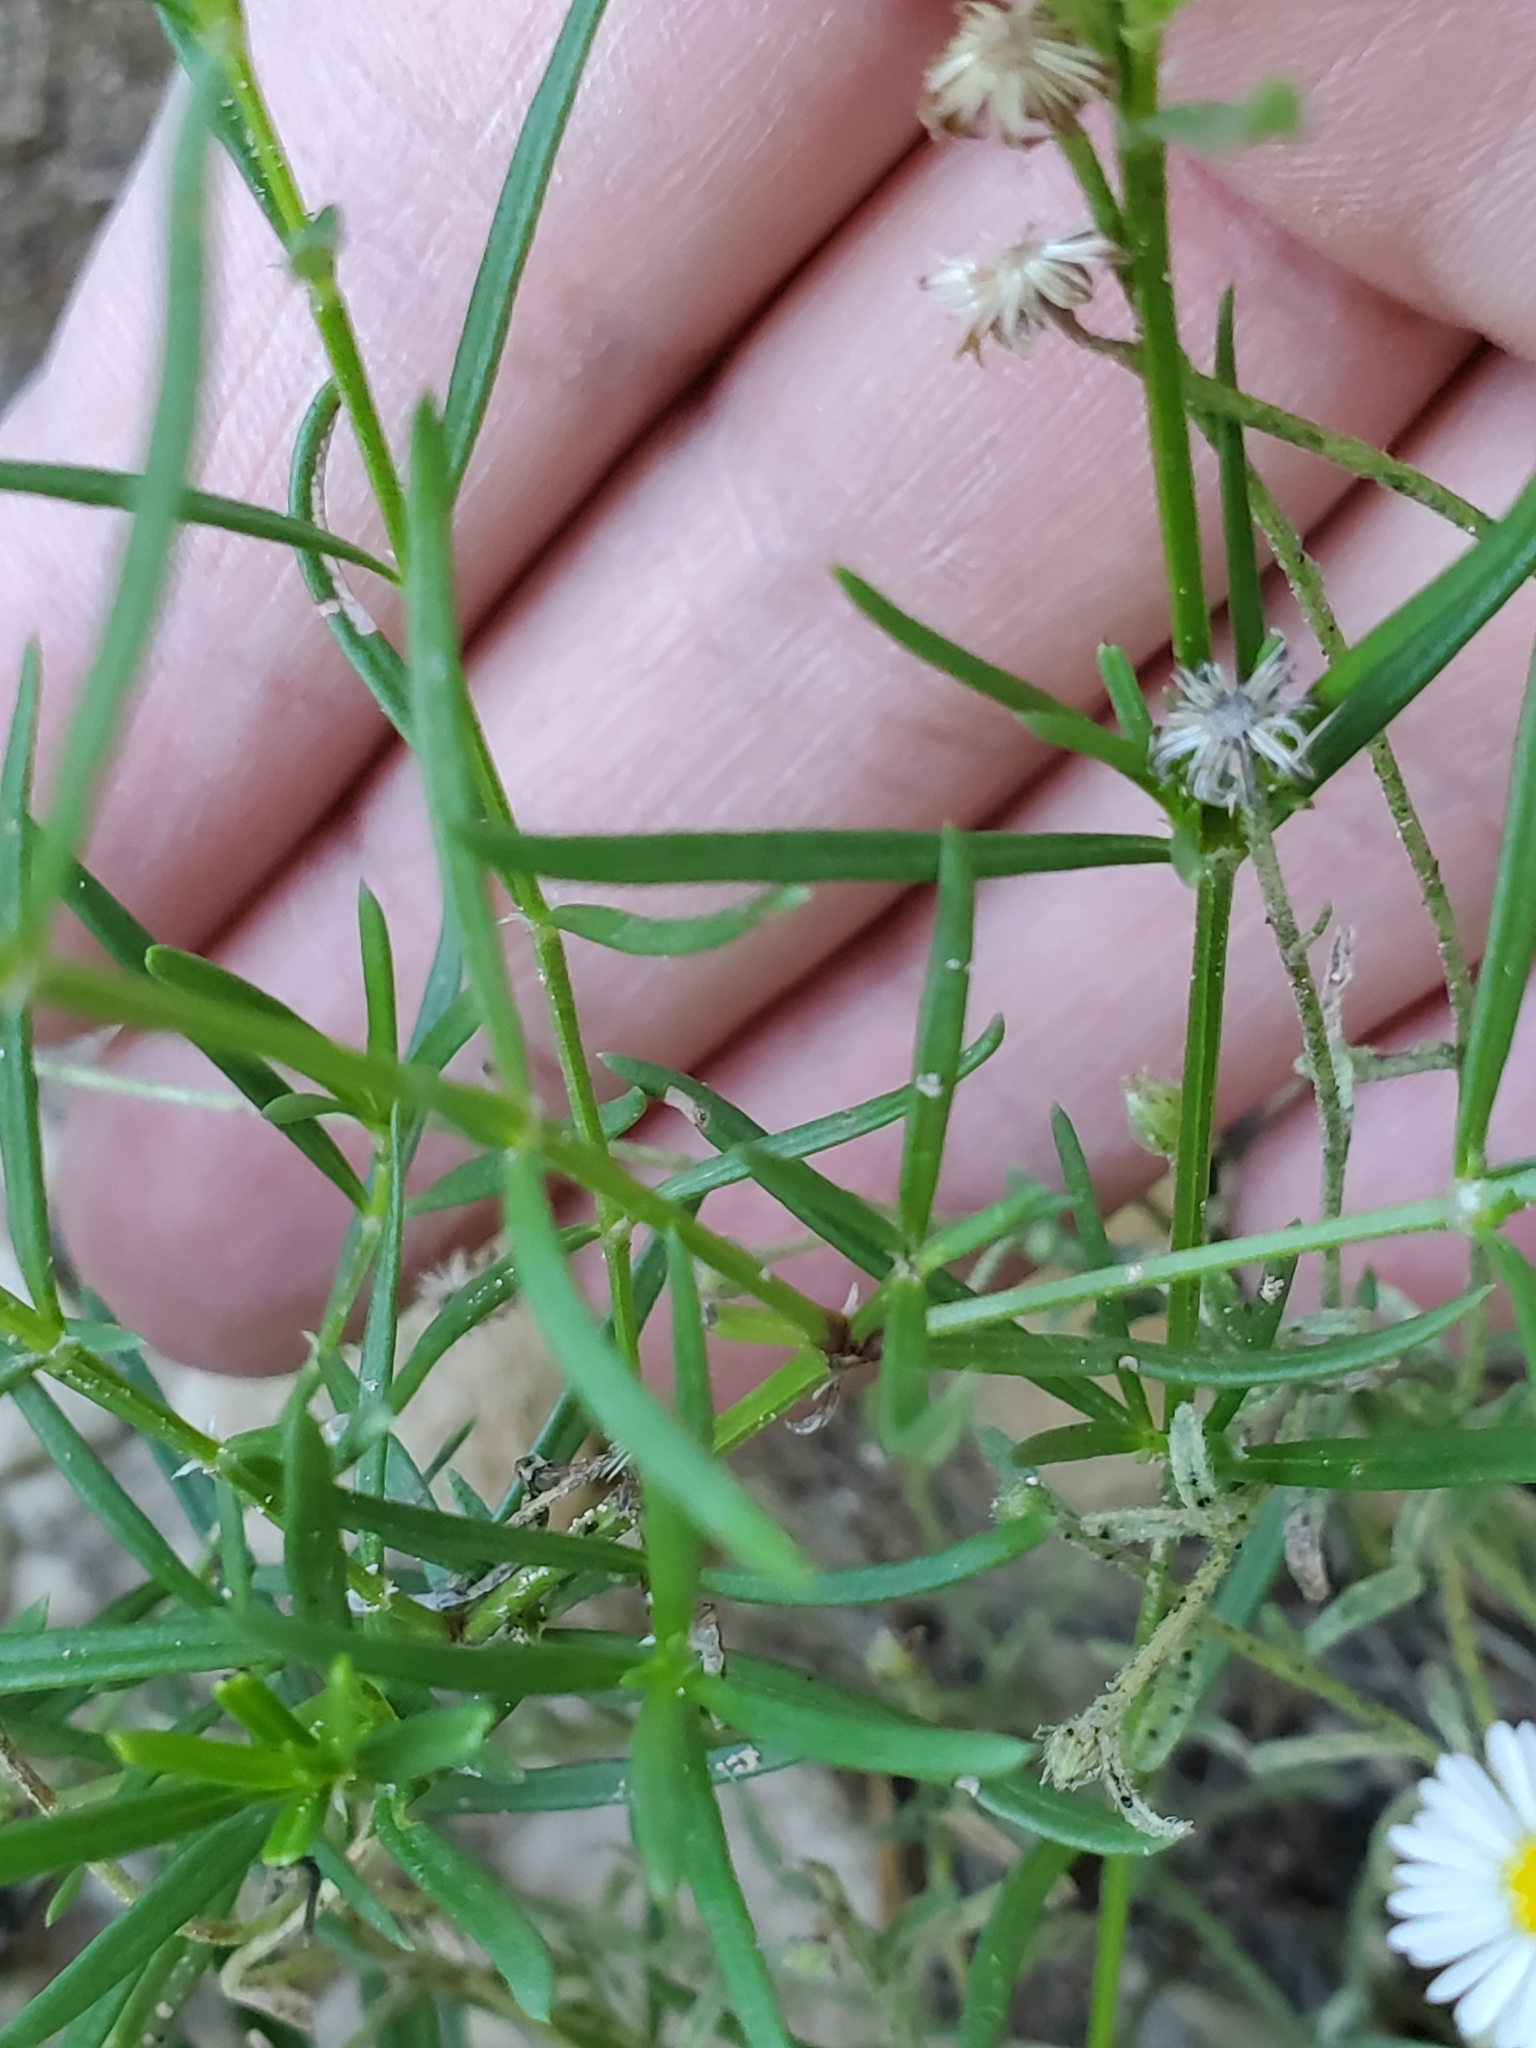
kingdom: Plantae
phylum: Tracheophyta
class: Magnoliopsida
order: Gentianales
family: Rubiaceae
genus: Stenaria
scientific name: Stenaria nigricans
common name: Diamondflowers
